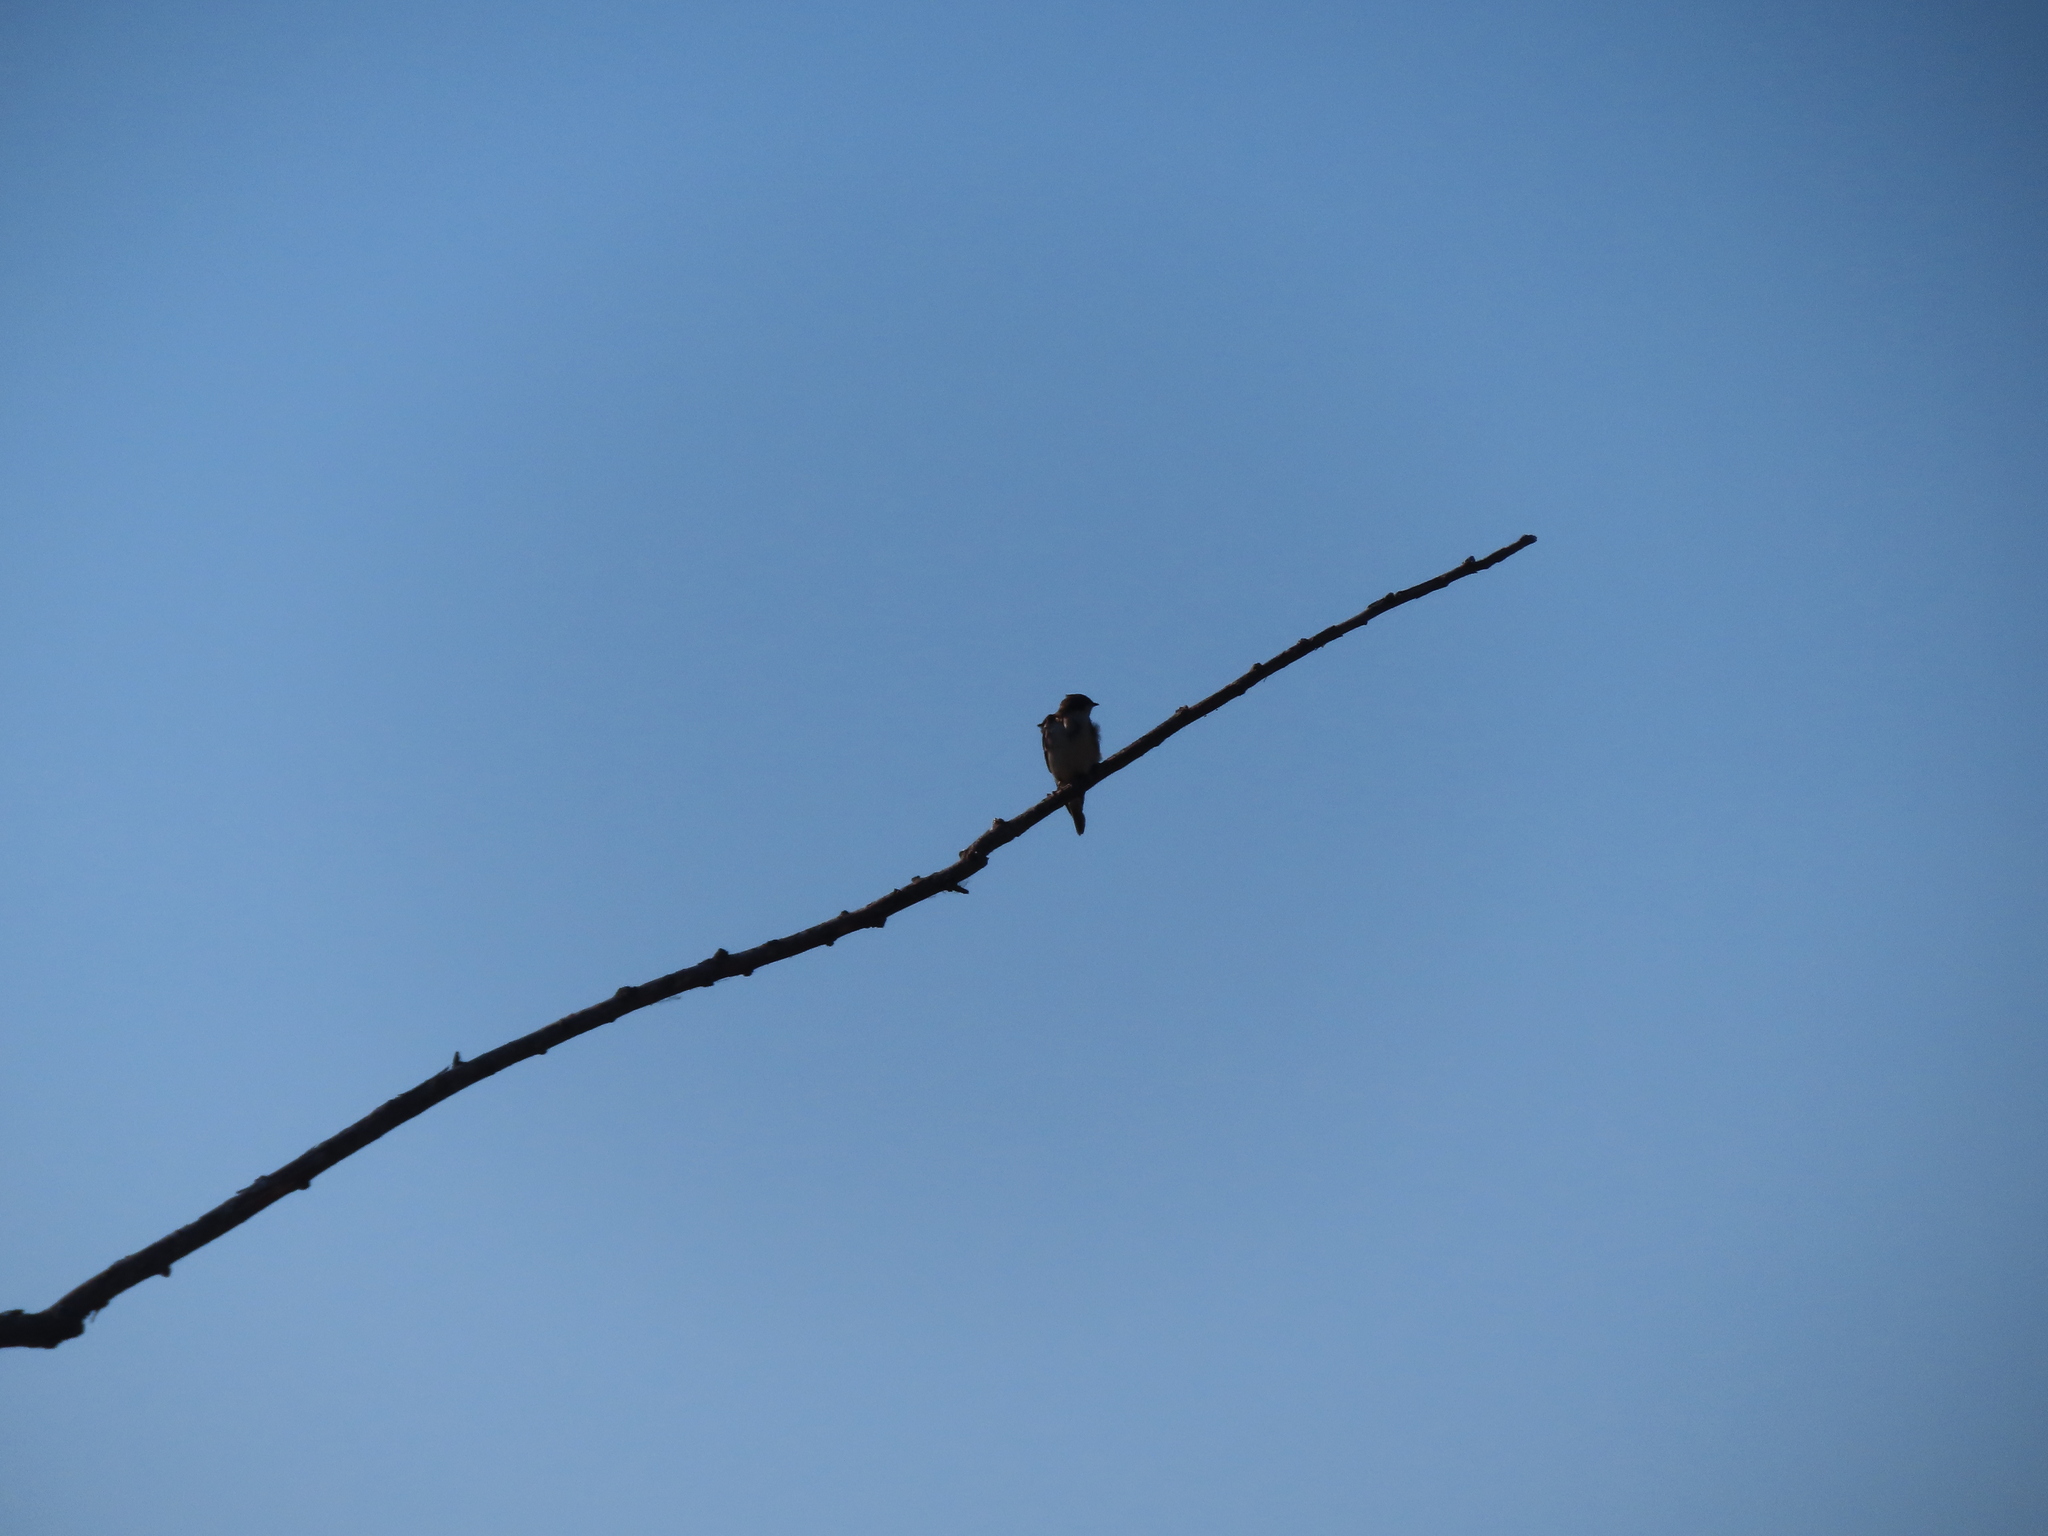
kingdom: Animalia
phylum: Chordata
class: Aves
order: Passeriformes
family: Hirundinidae
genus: Tachycineta
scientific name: Tachycineta bicolor
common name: Tree swallow
